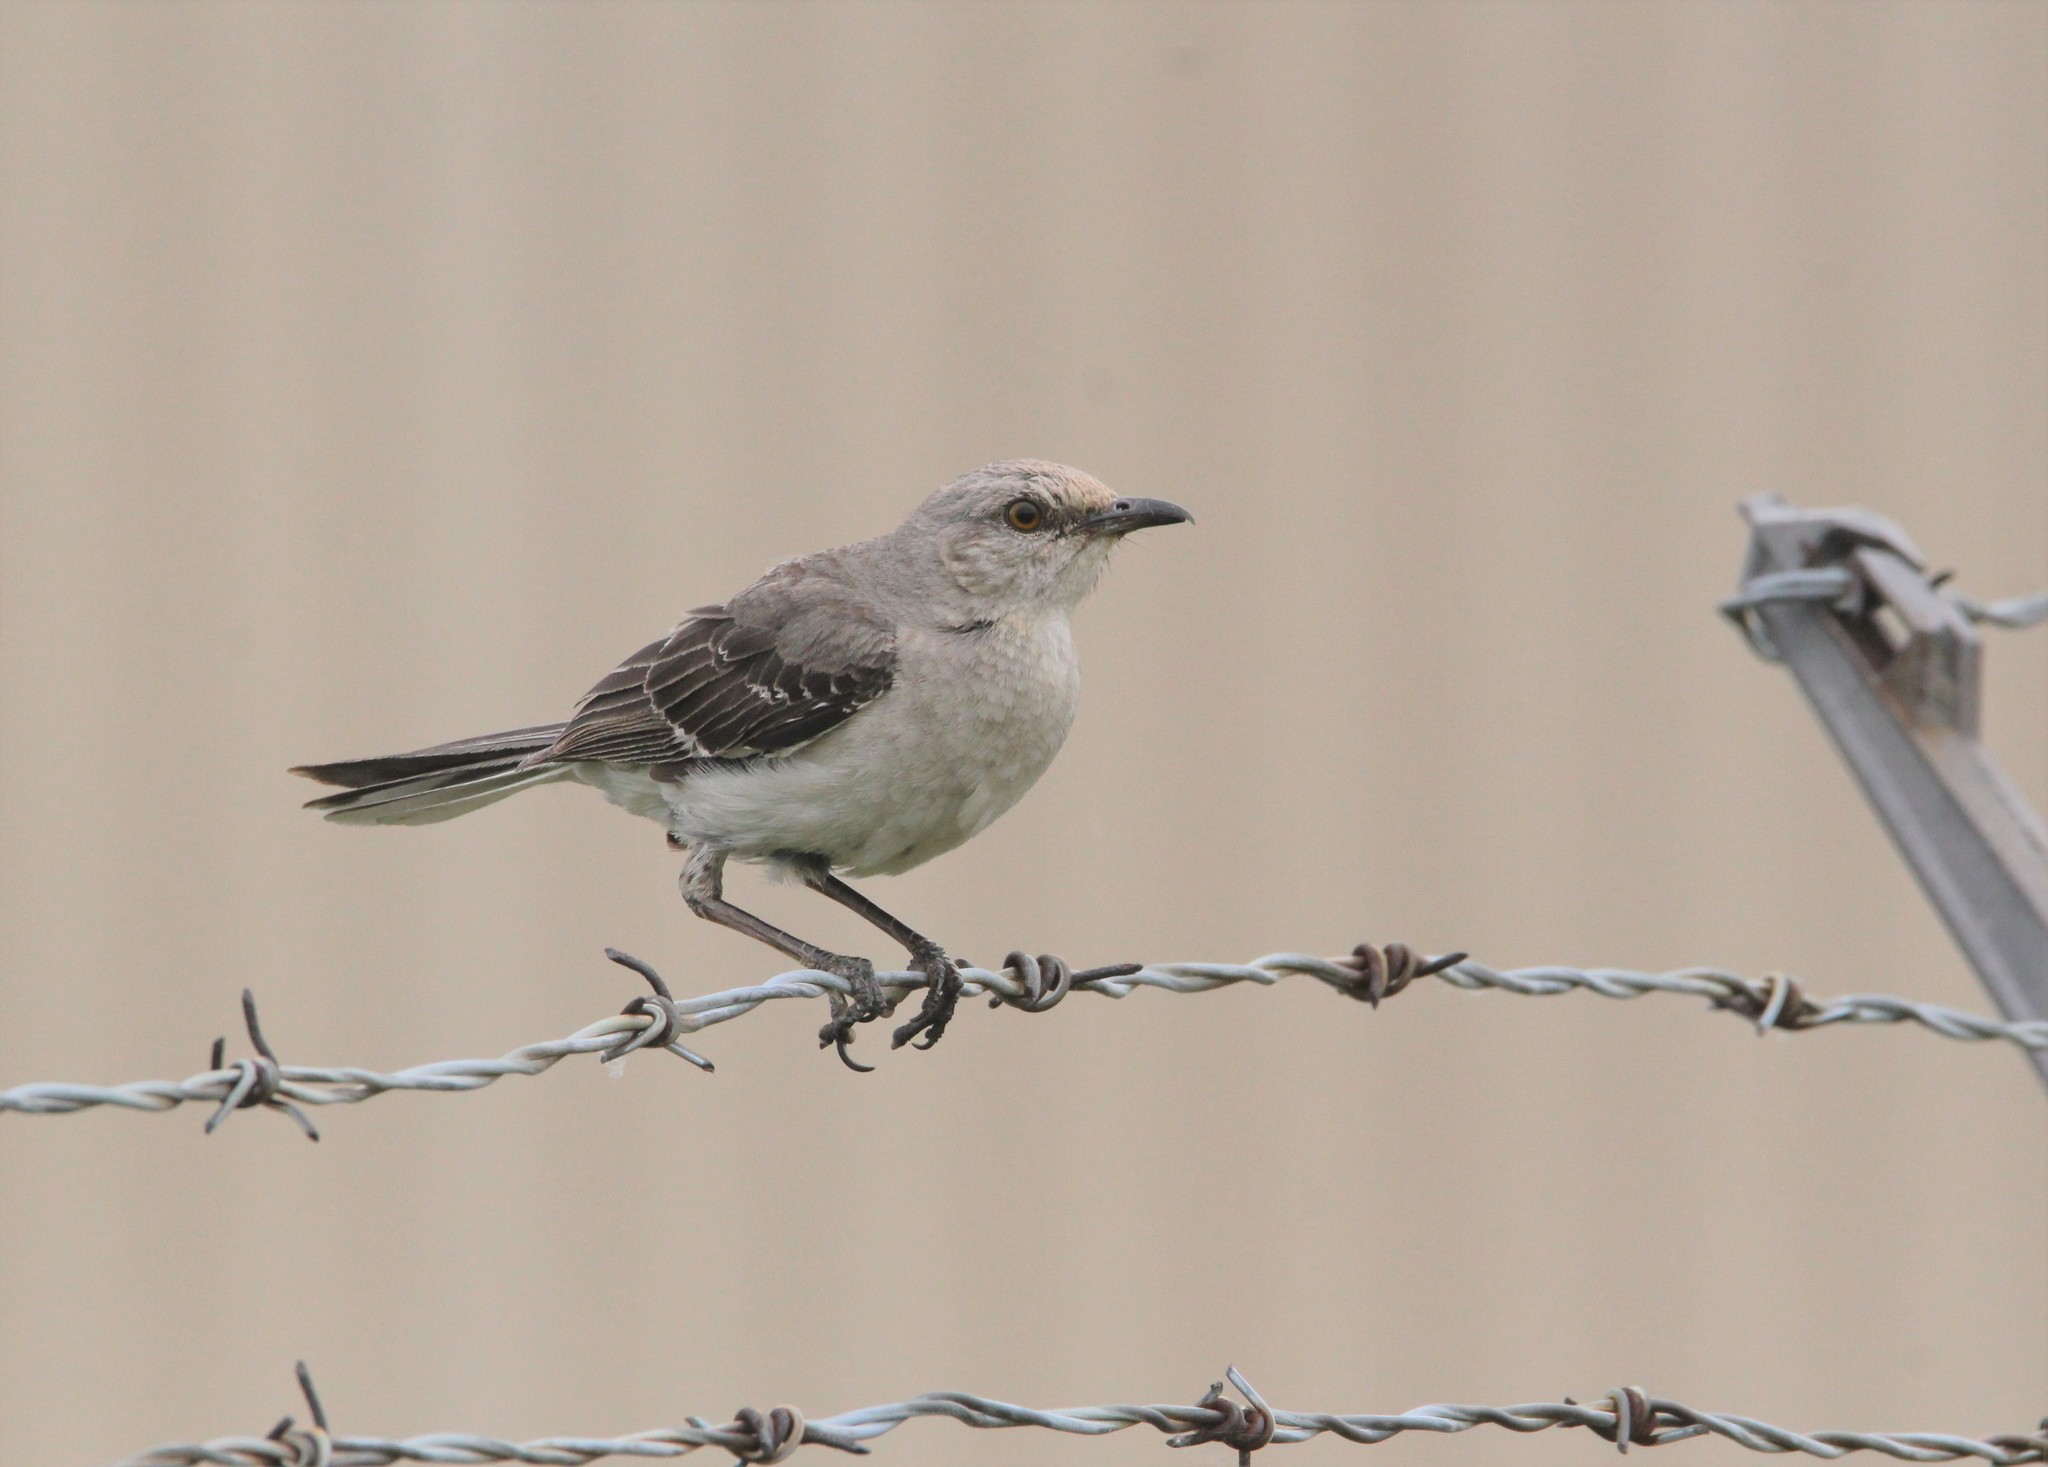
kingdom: Animalia
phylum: Chordata
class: Aves
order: Passeriformes
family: Mimidae
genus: Mimus
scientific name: Mimus polyglottos
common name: Northern mockingbird
